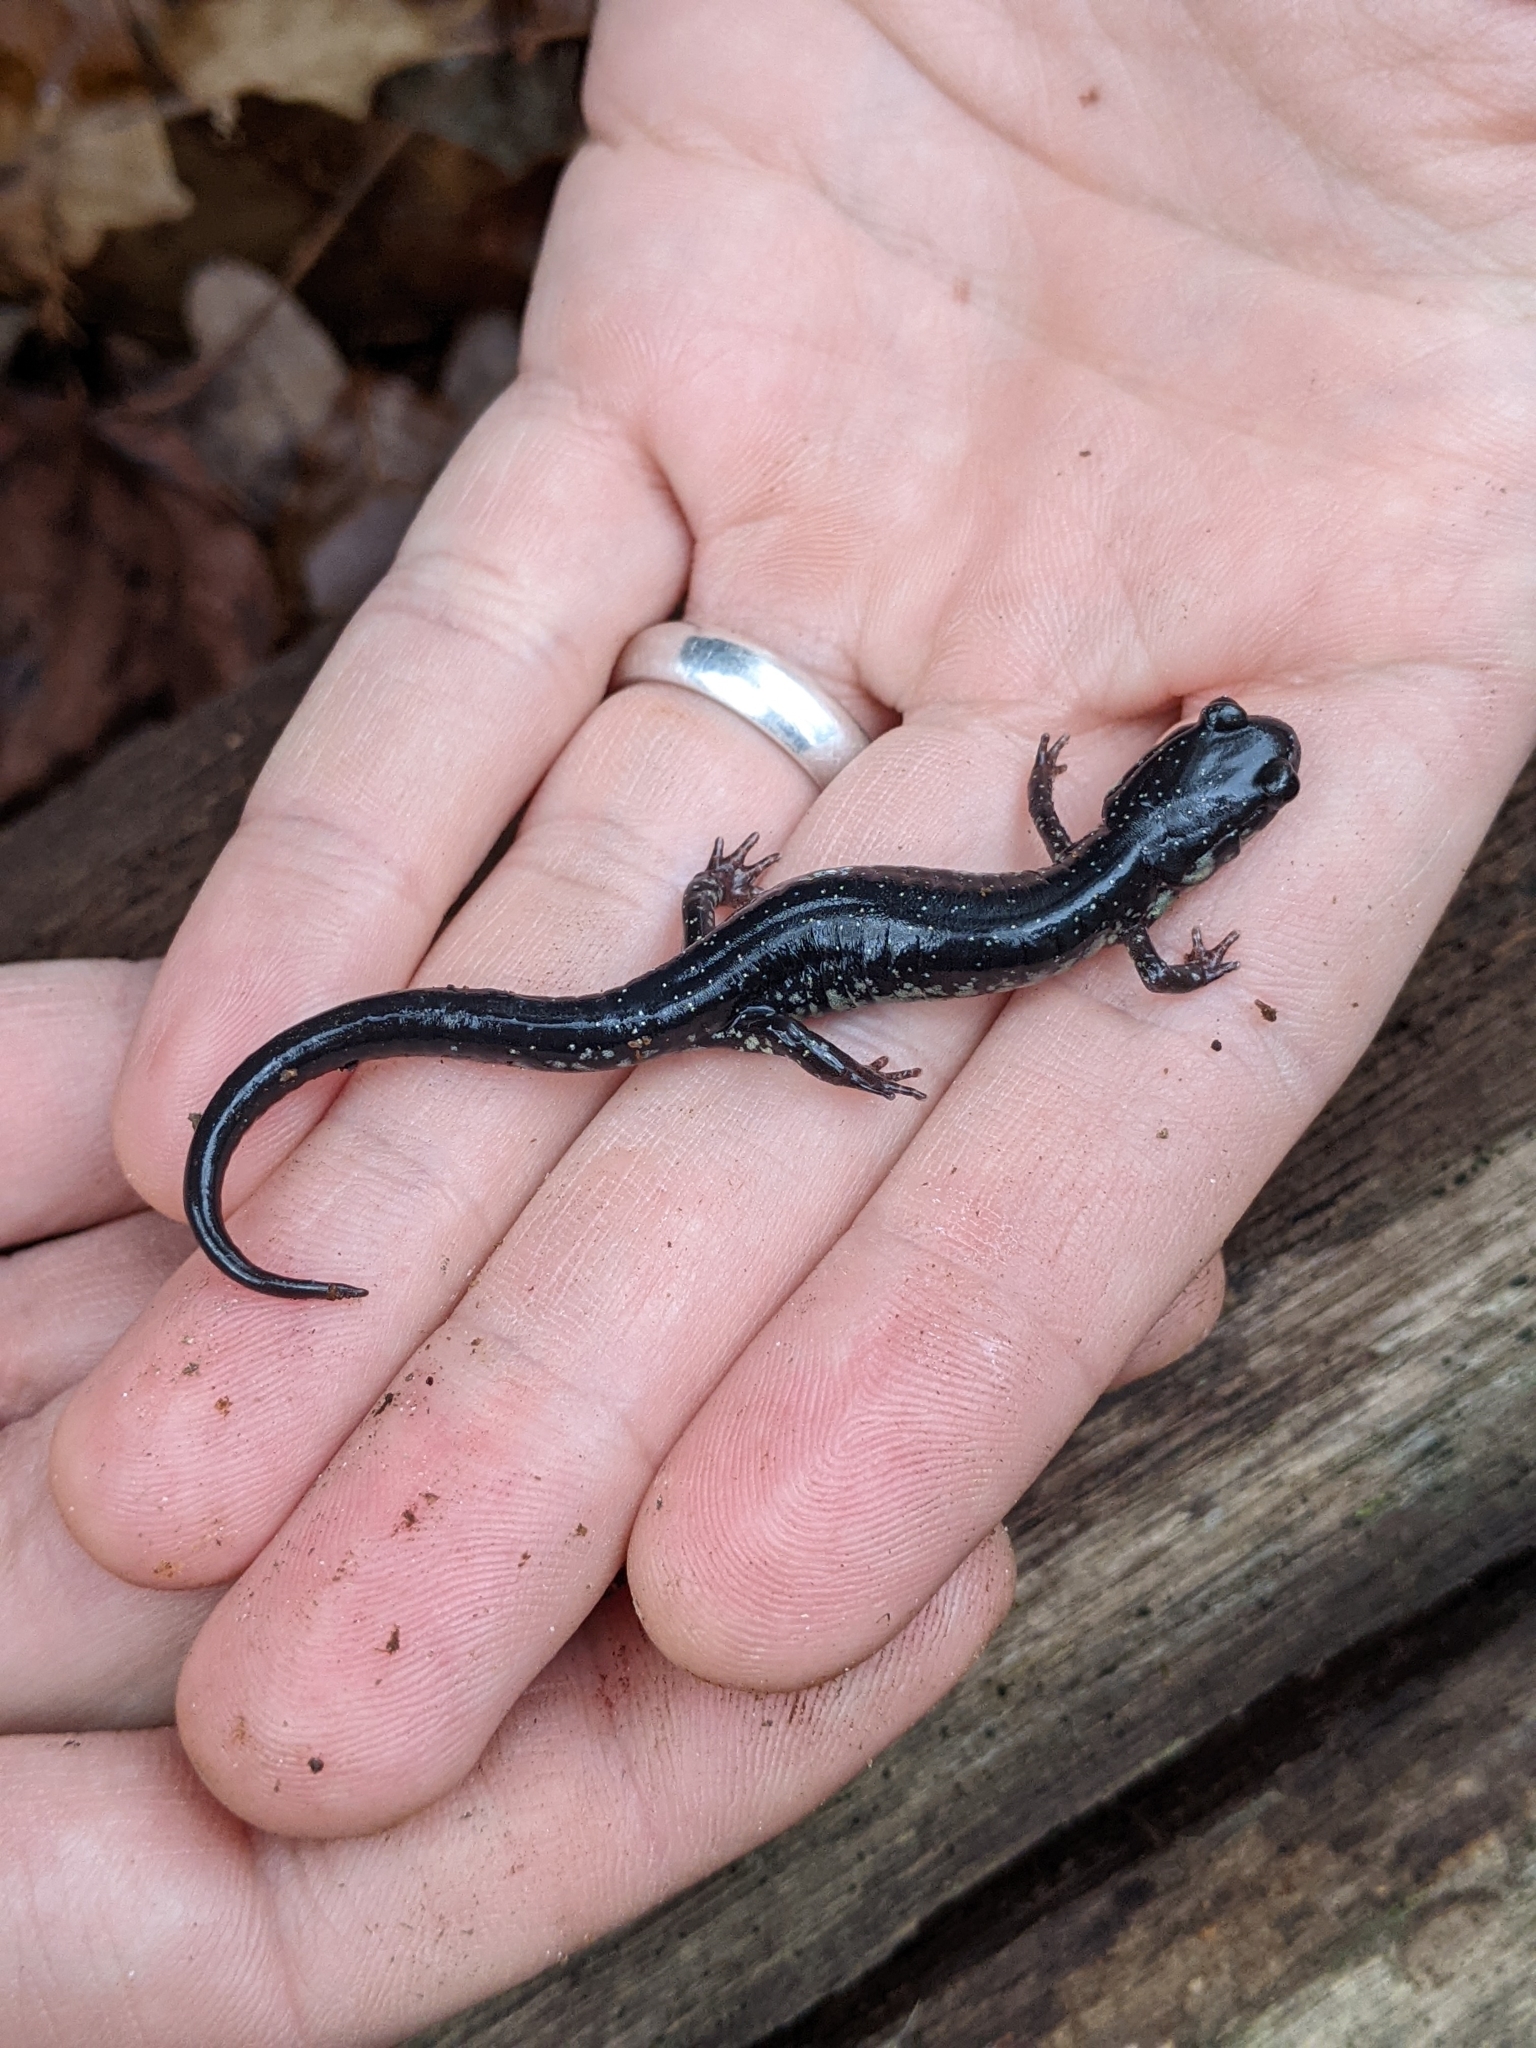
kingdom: Animalia
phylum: Chordata
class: Amphibia
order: Caudata
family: Plethodontidae
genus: Plethodon
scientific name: Plethodon chlorobryonis
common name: Atlantic coast slimy salamander
